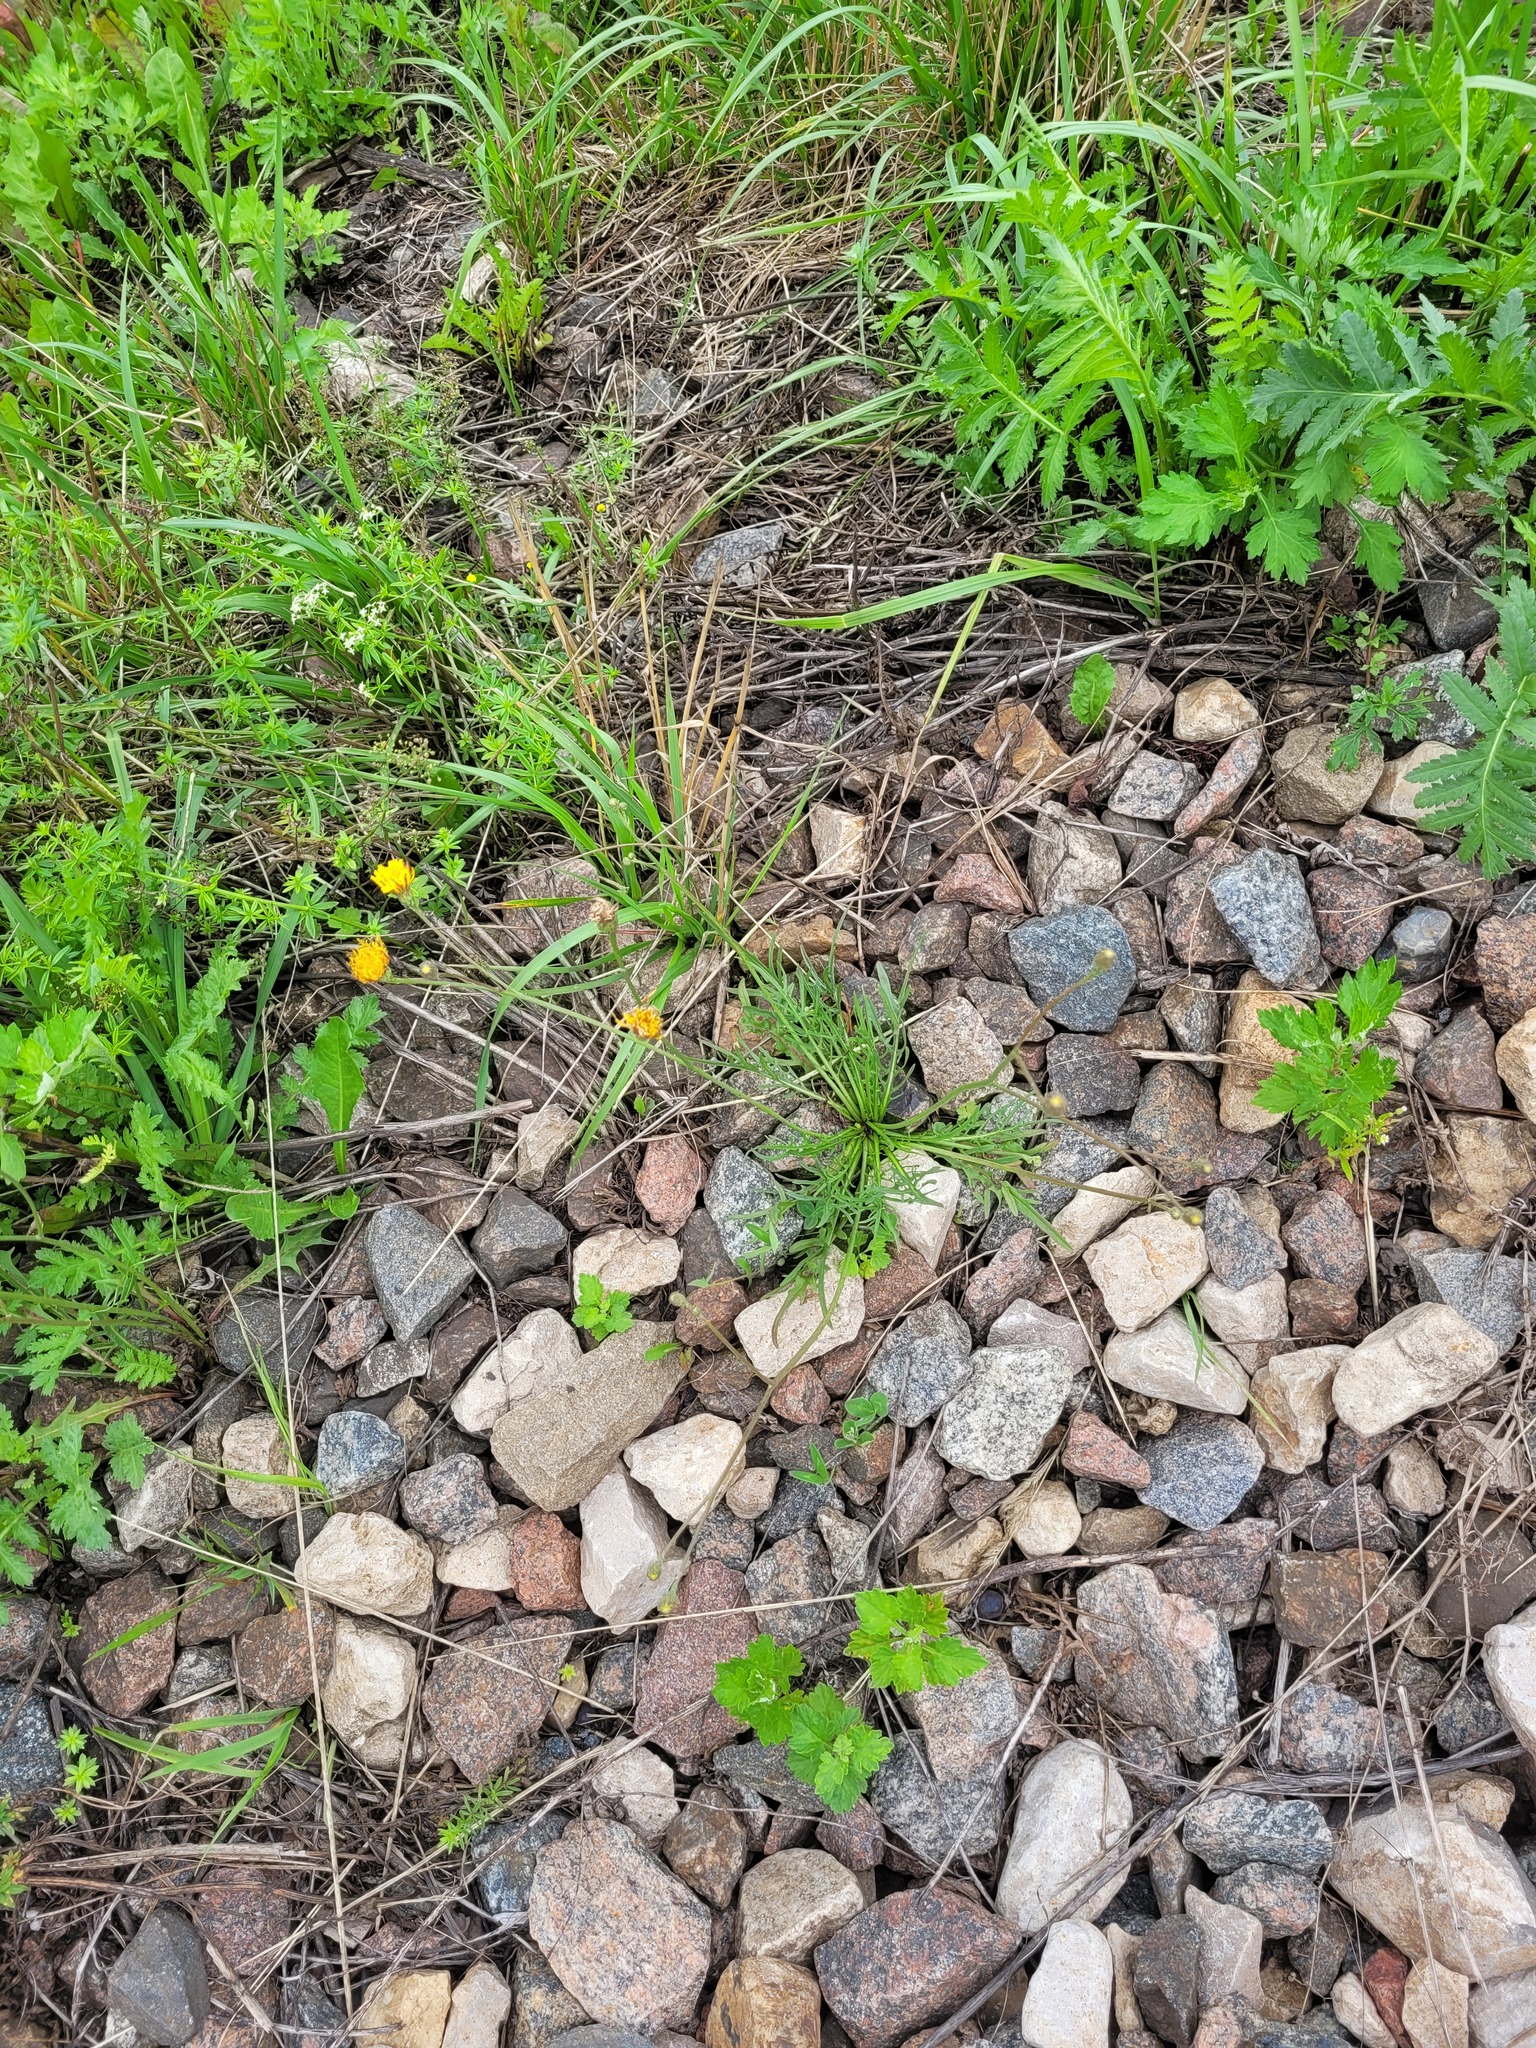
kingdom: Plantae
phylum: Tracheophyta
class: Magnoliopsida
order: Asterales
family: Asteraceae
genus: Scorzoneroides
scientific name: Scorzoneroides autumnalis
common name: Autumn hawkbit
